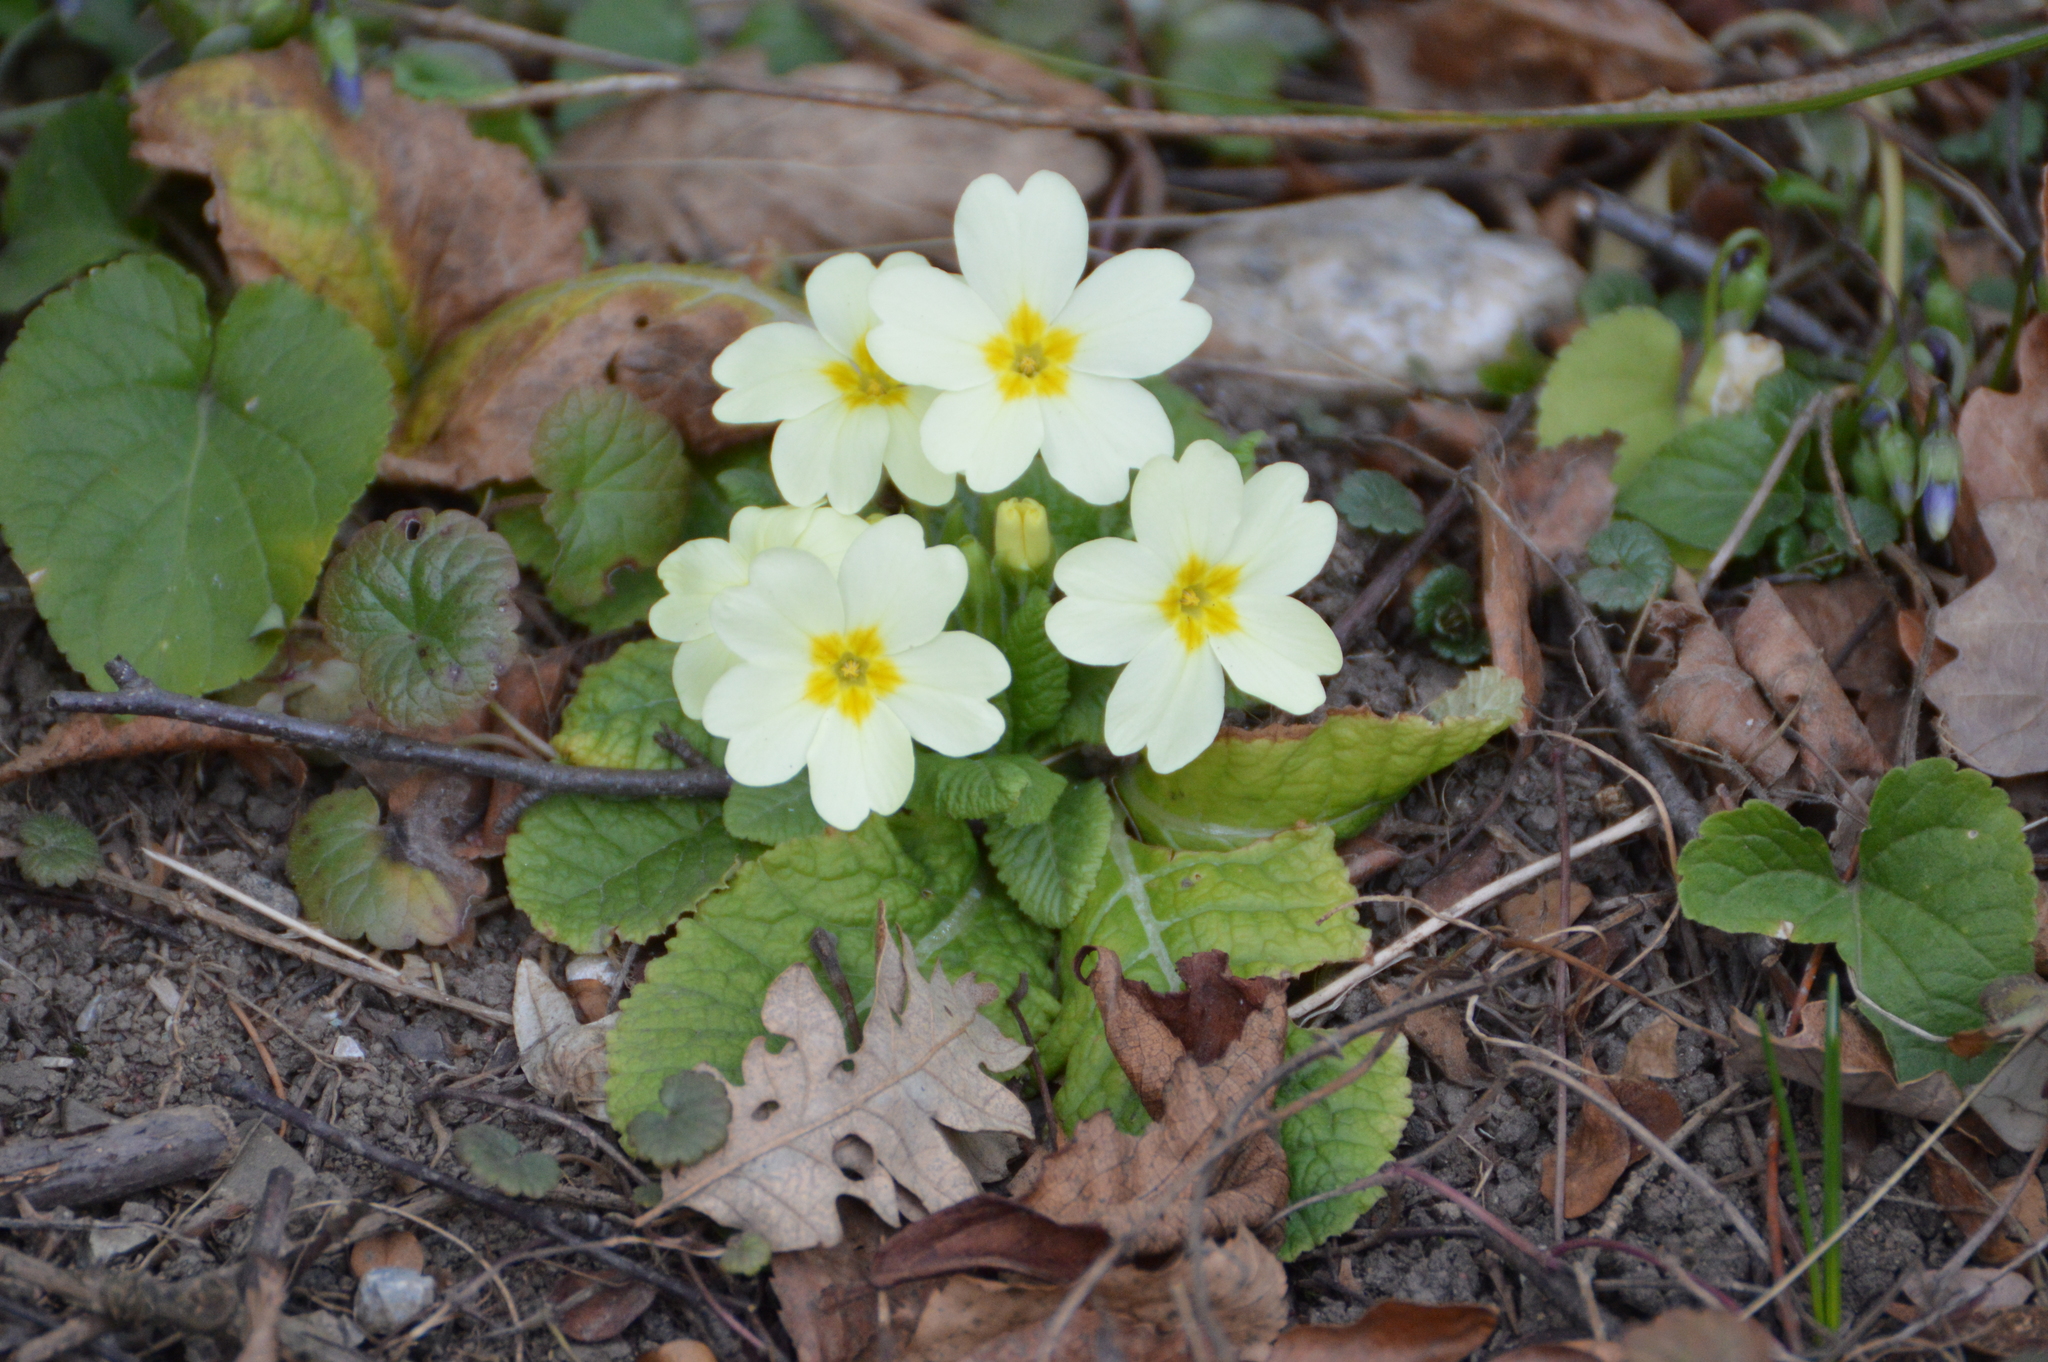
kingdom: Plantae
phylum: Tracheophyta
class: Magnoliopsida
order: Ericales
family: Primulaceae
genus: Primula
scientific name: Primula vulgaris
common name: Primrose
